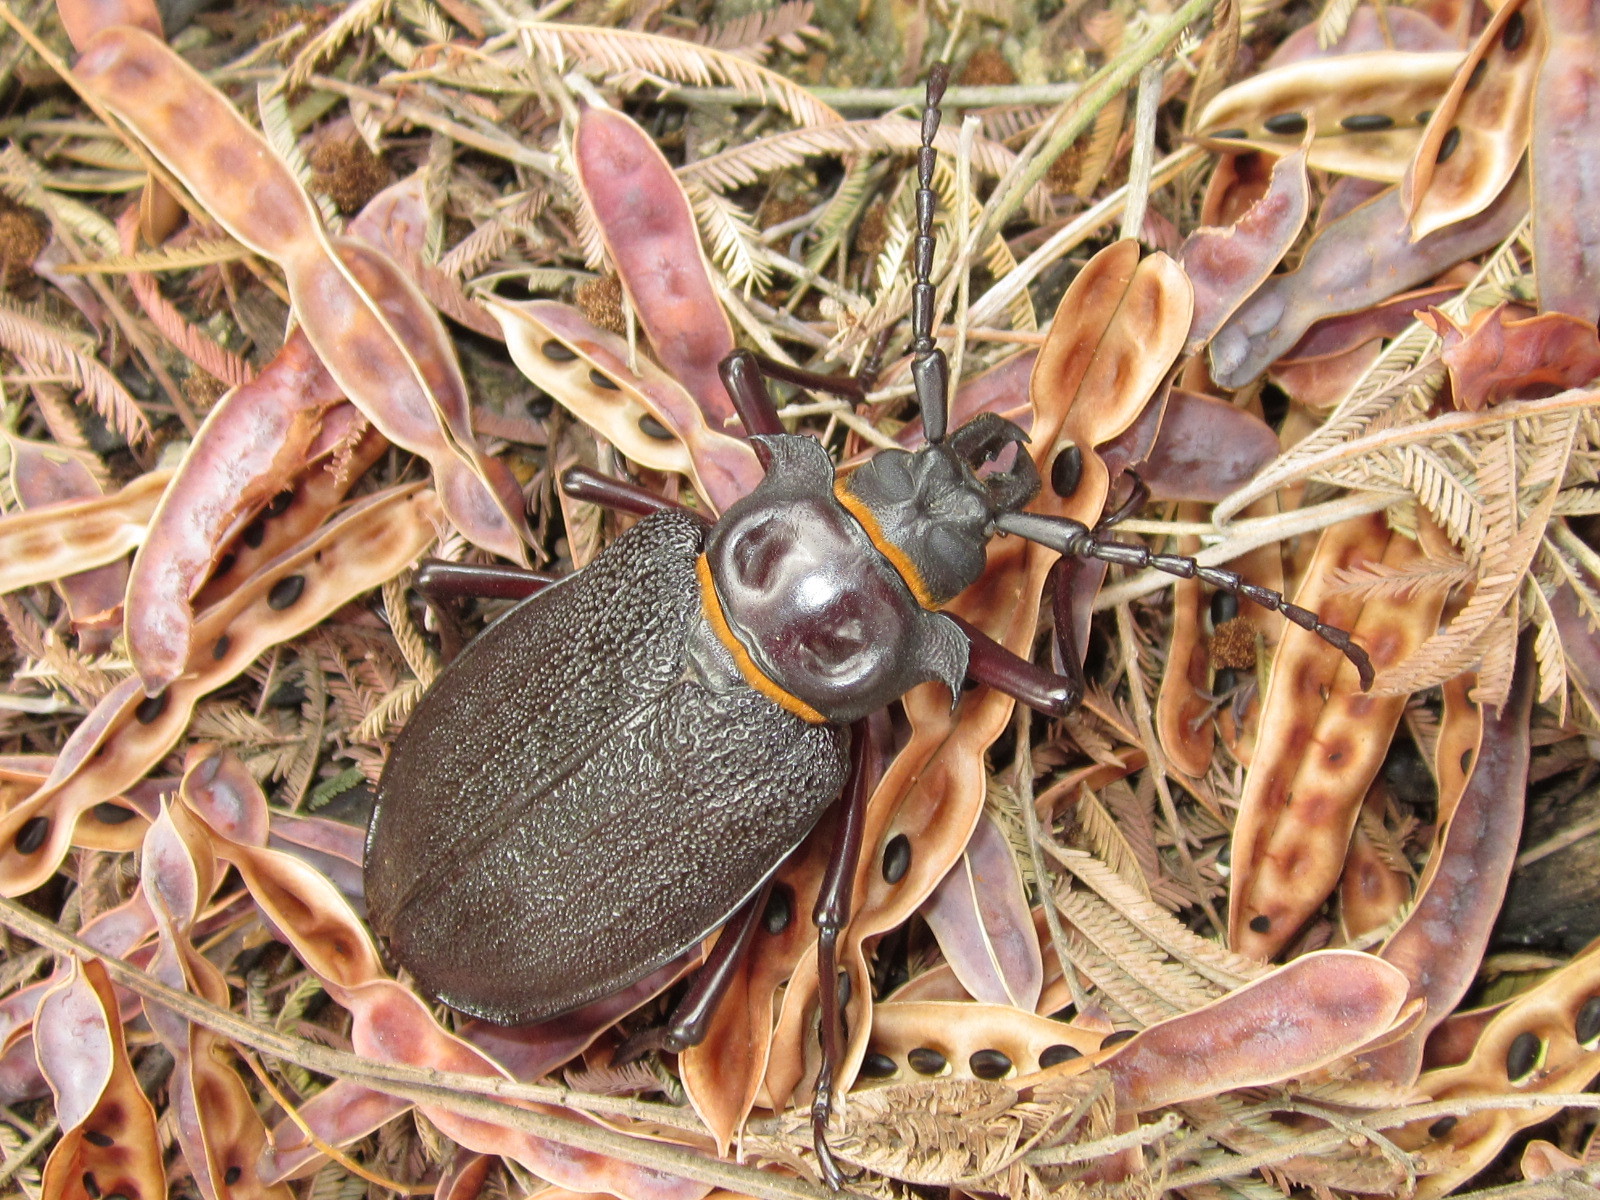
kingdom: Animalia
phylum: Arthropoda
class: Insecta
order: Coleoptera
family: Cerambycidae
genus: Acanthinodera
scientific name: Acanthinodera cumingii
